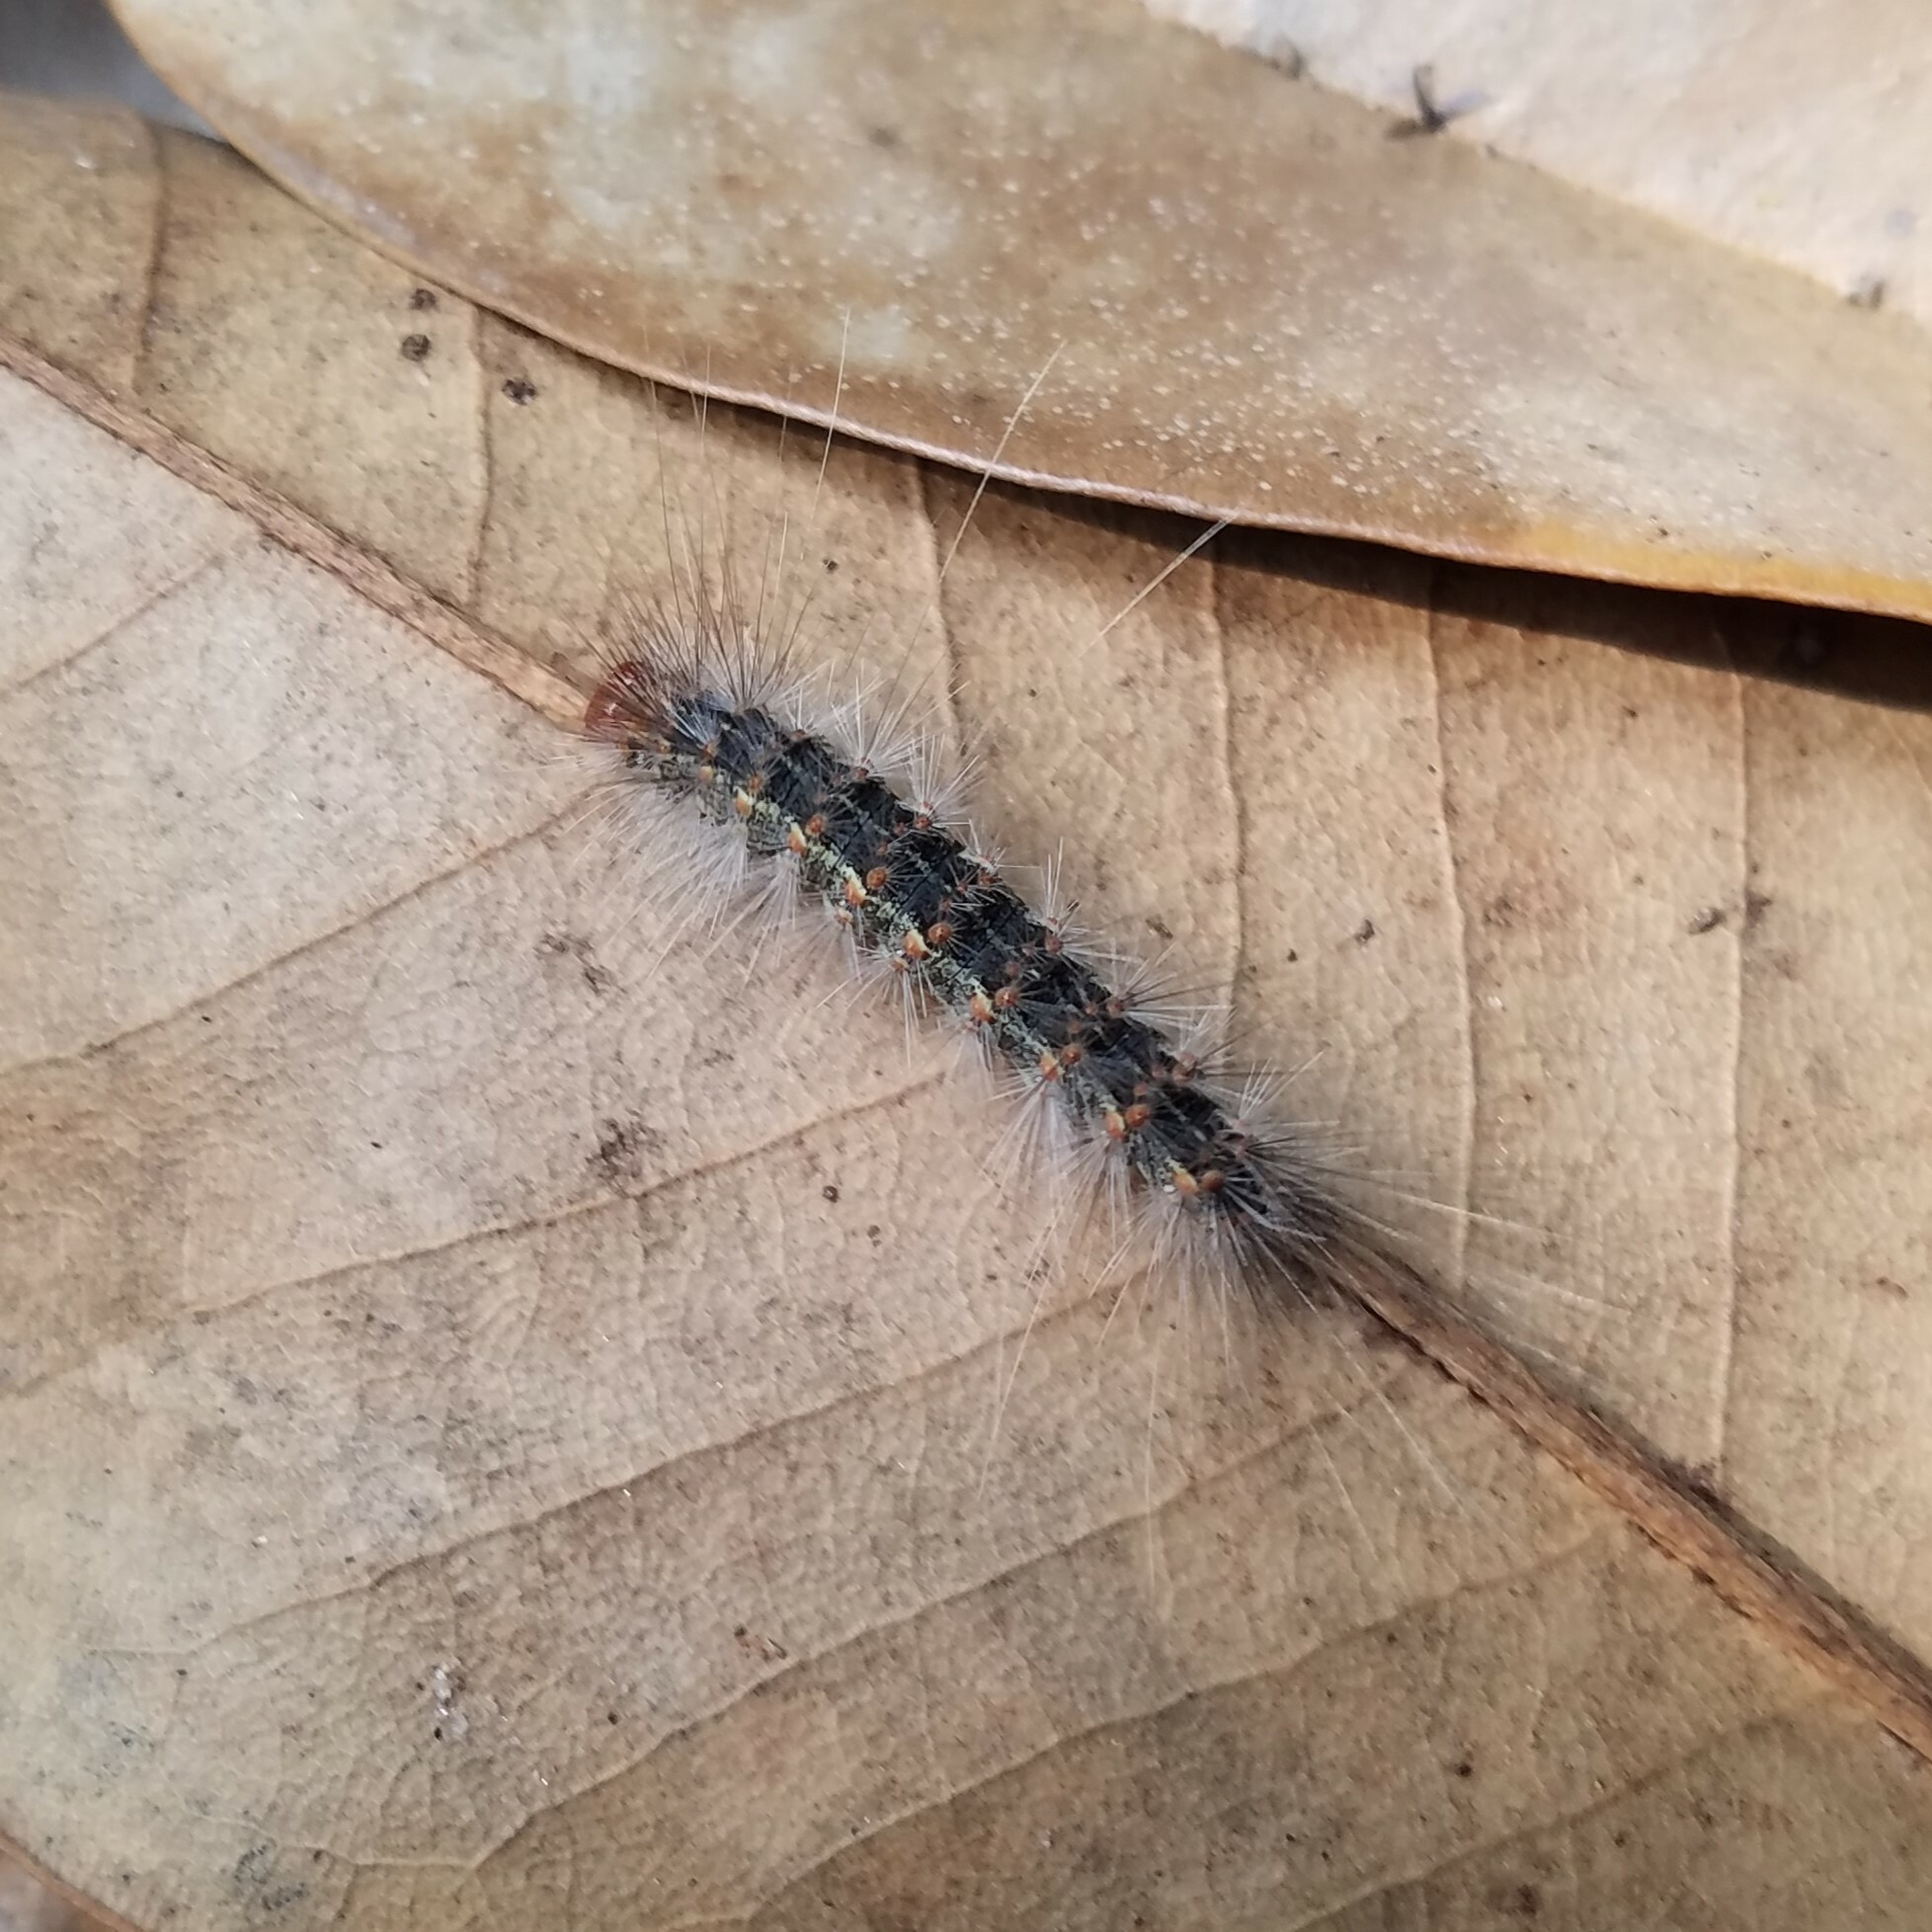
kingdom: Animalia
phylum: Arthropoda
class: Insecta
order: Lepidoptera
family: Erebidae
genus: Hyphantria
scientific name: Hyphantria cunea
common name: American white moth
